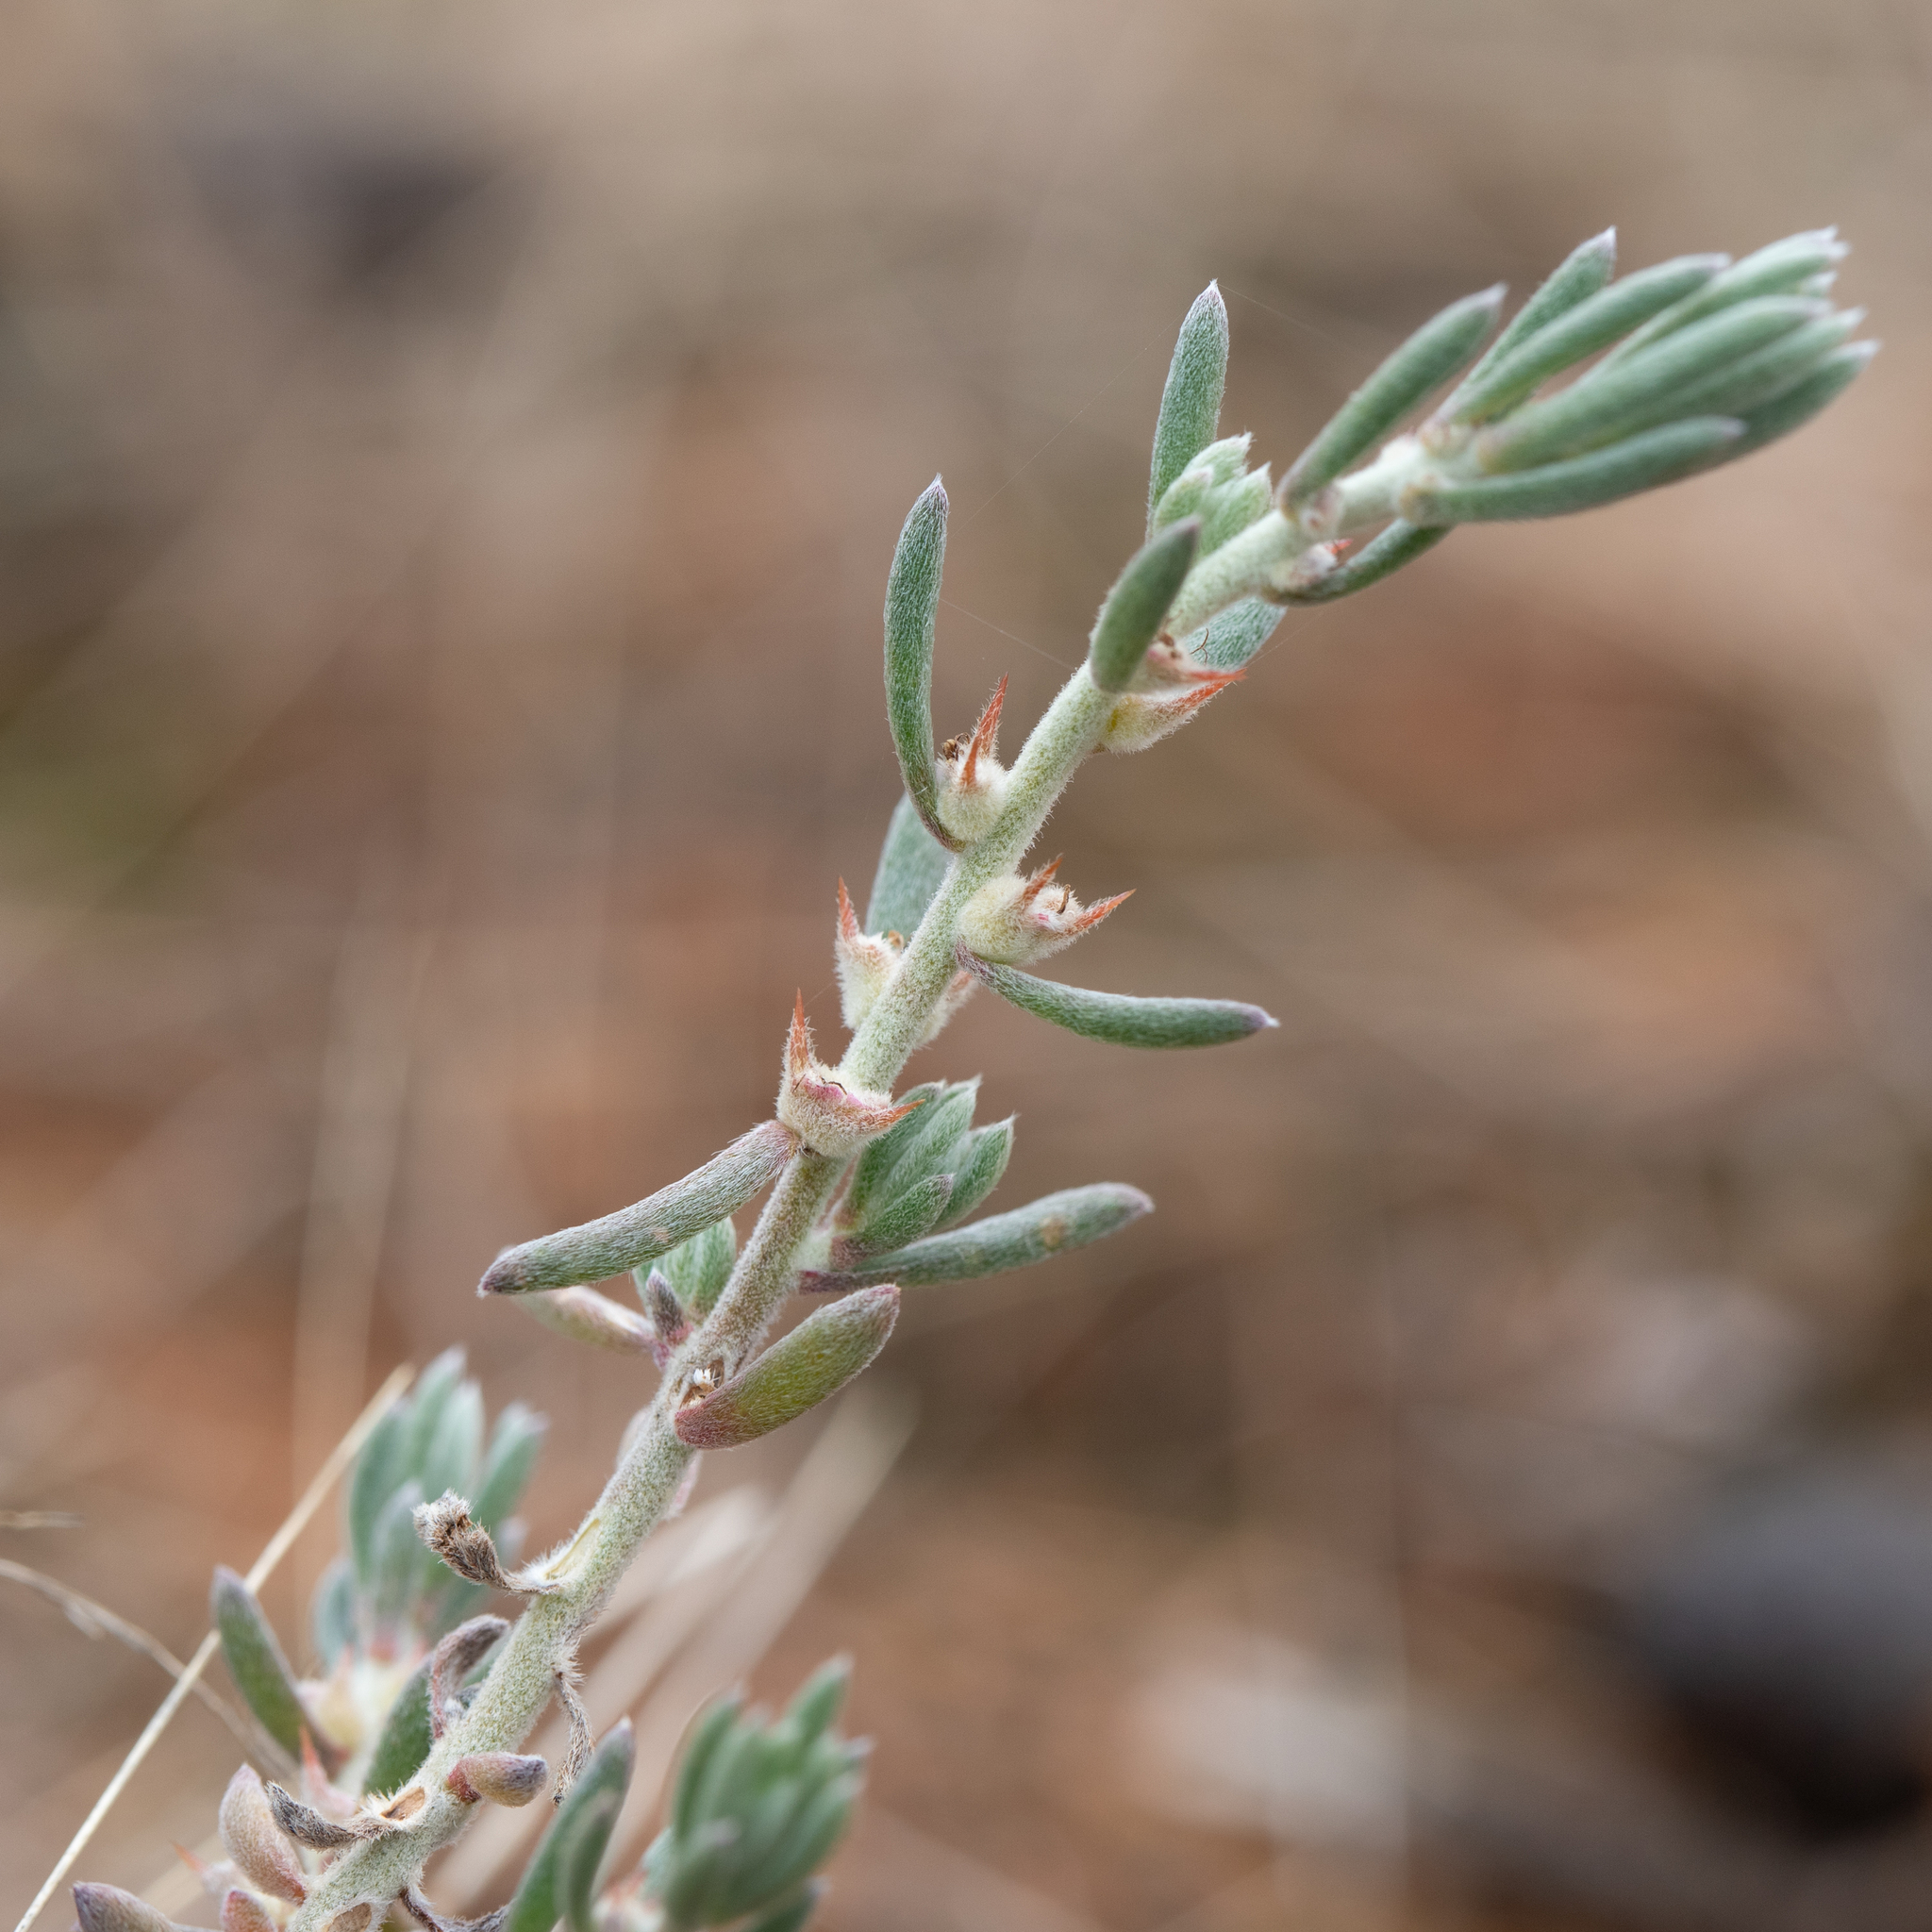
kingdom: Plantae
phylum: Tracheophyta
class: Magnoliopsida
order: Caryophyllales
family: Amaranthaceae
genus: Sclerolaena
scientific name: Sclerolaena diacantha
